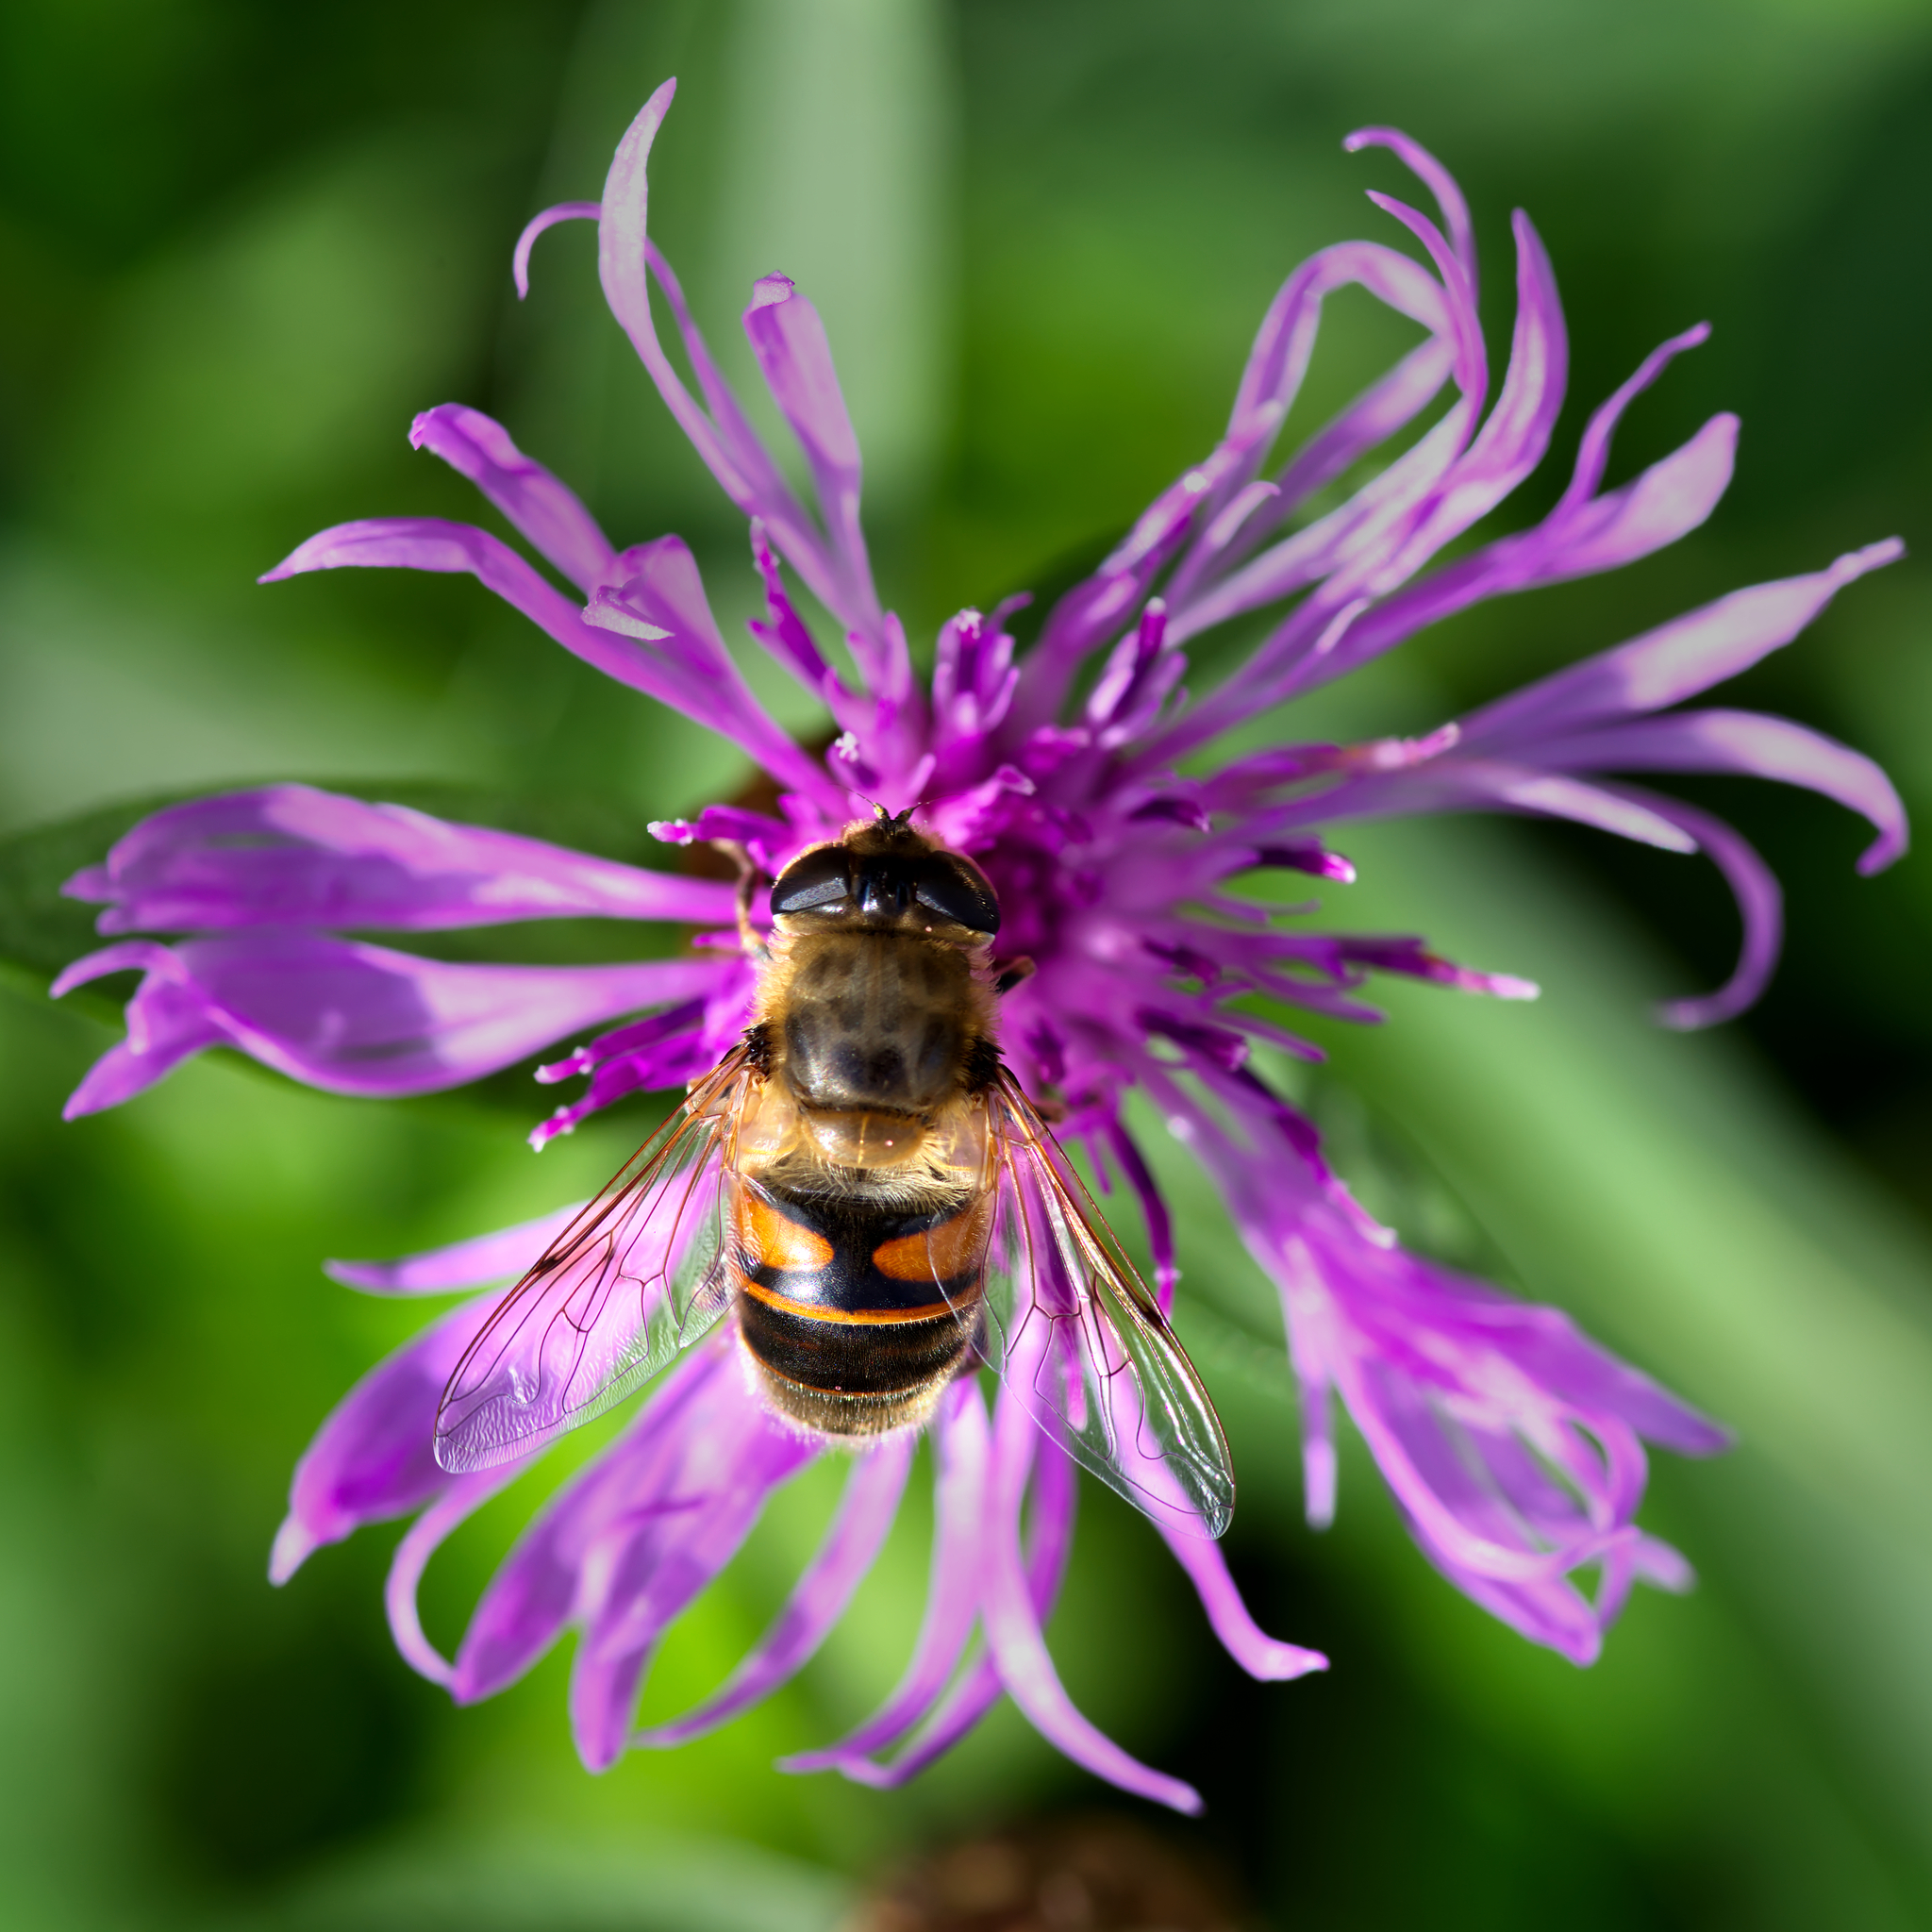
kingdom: Animalia
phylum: Arthropoda
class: Insecta
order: Diptera
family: Syrphidae
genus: Eristalis
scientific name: Eristalis tenax
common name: Drone fly
